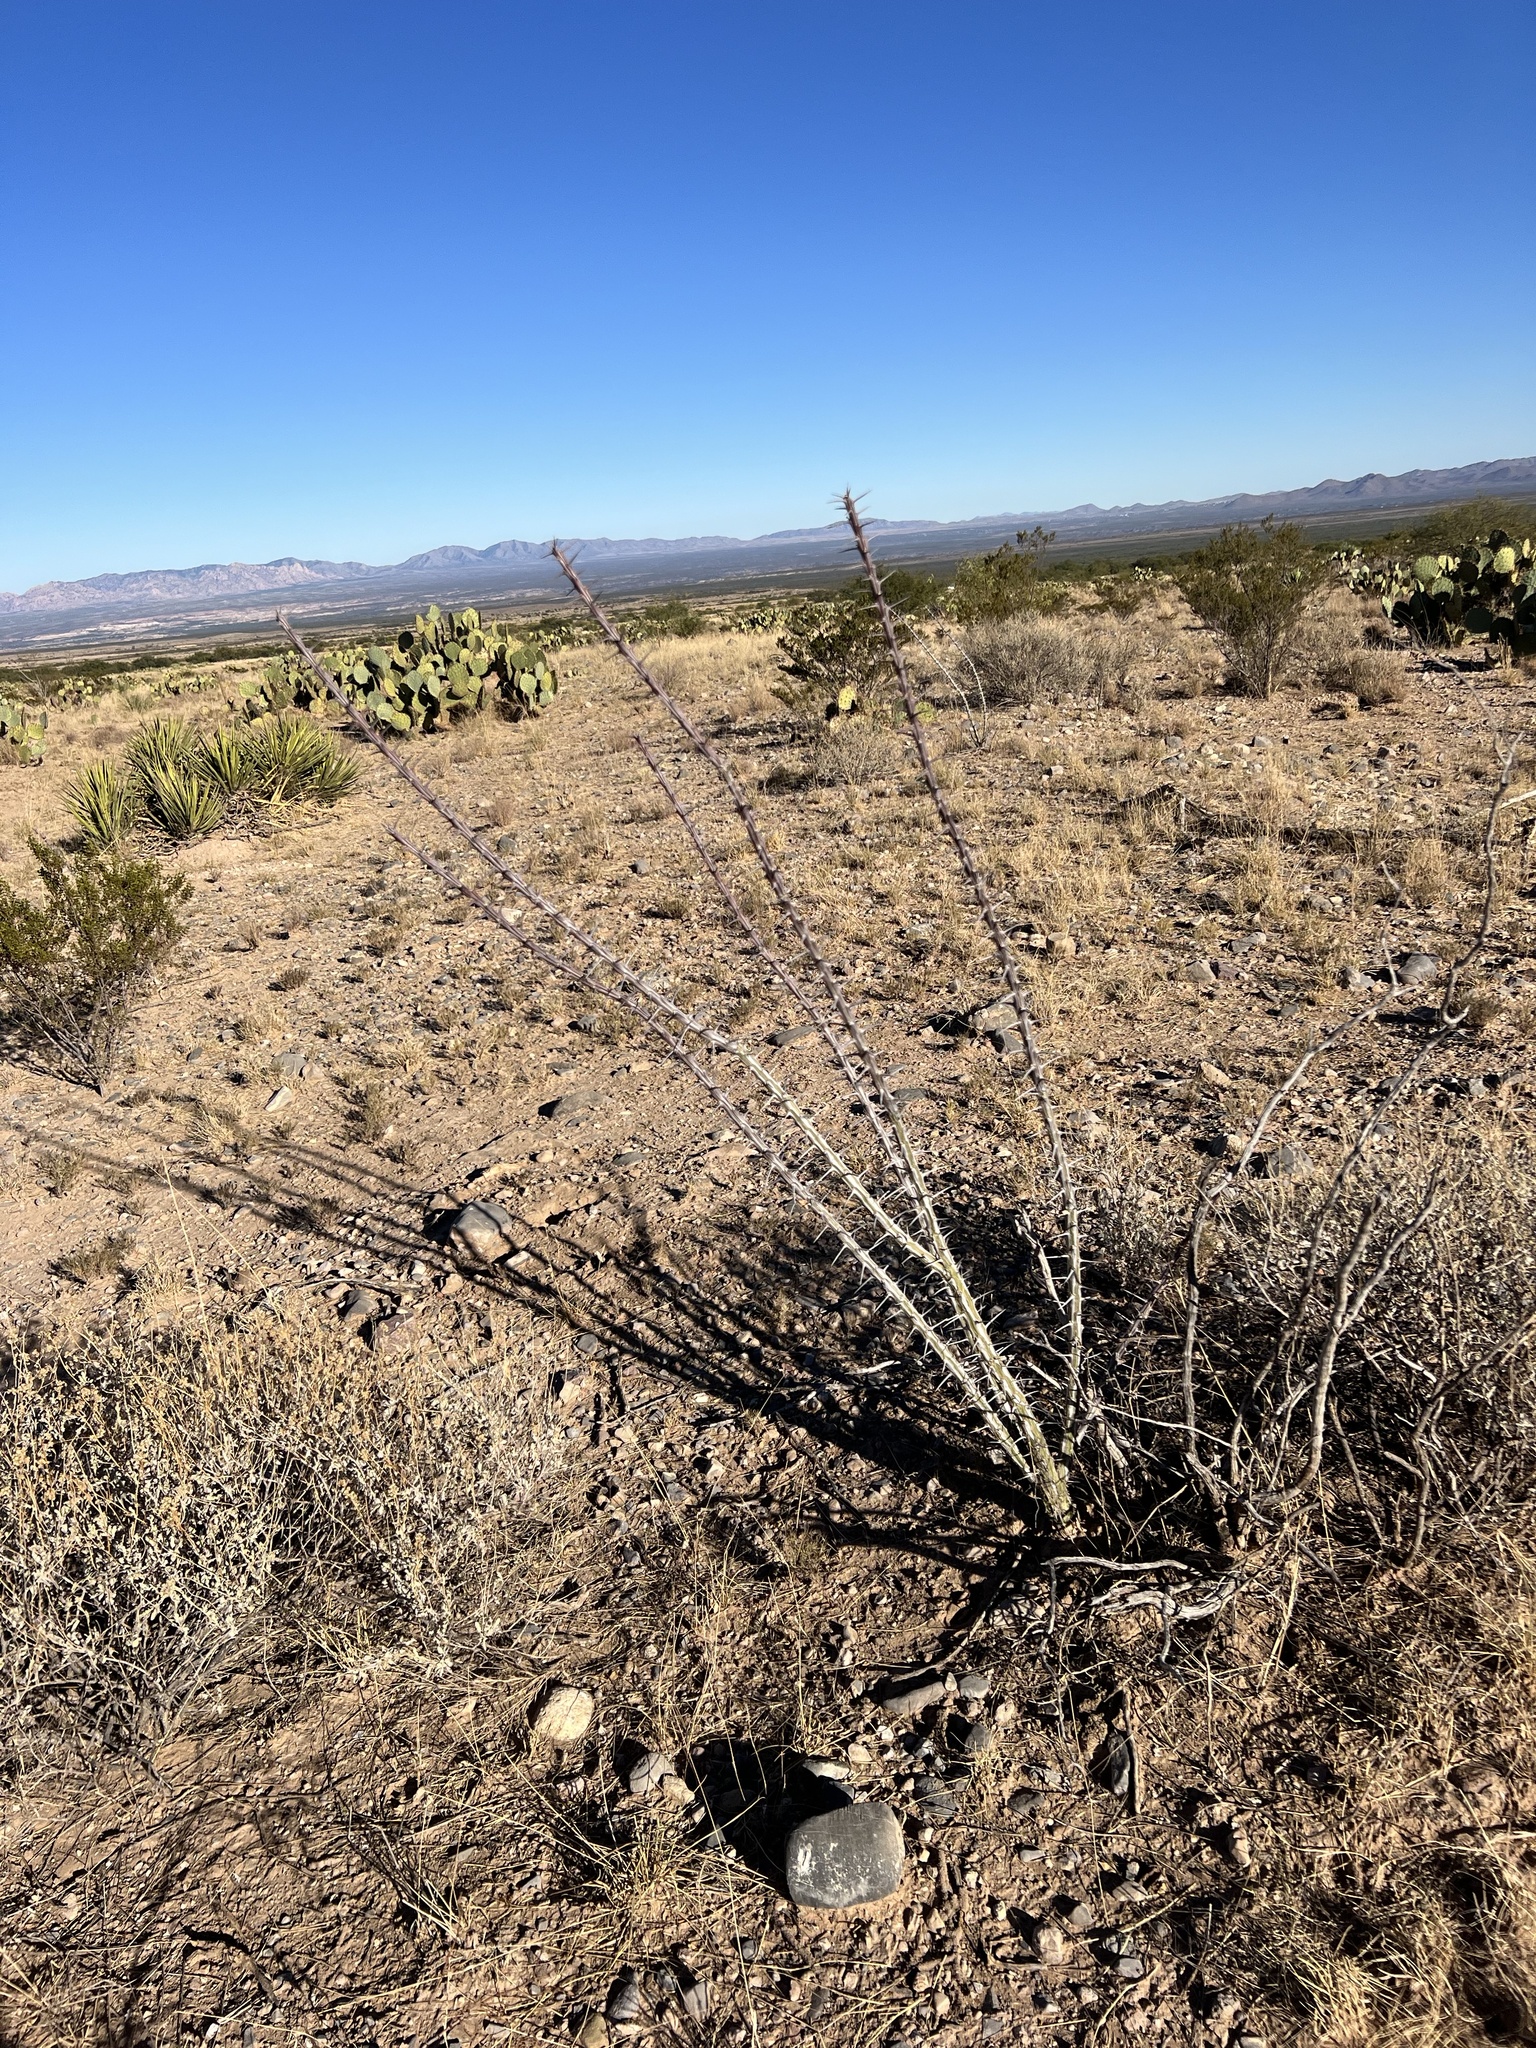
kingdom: Plantae
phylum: Tracheophyta
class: Magnoliopsida
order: Ericales
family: Fouquieriaceae
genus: Fouquieria
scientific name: Fouquieria splendens
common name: Vine-cactus
